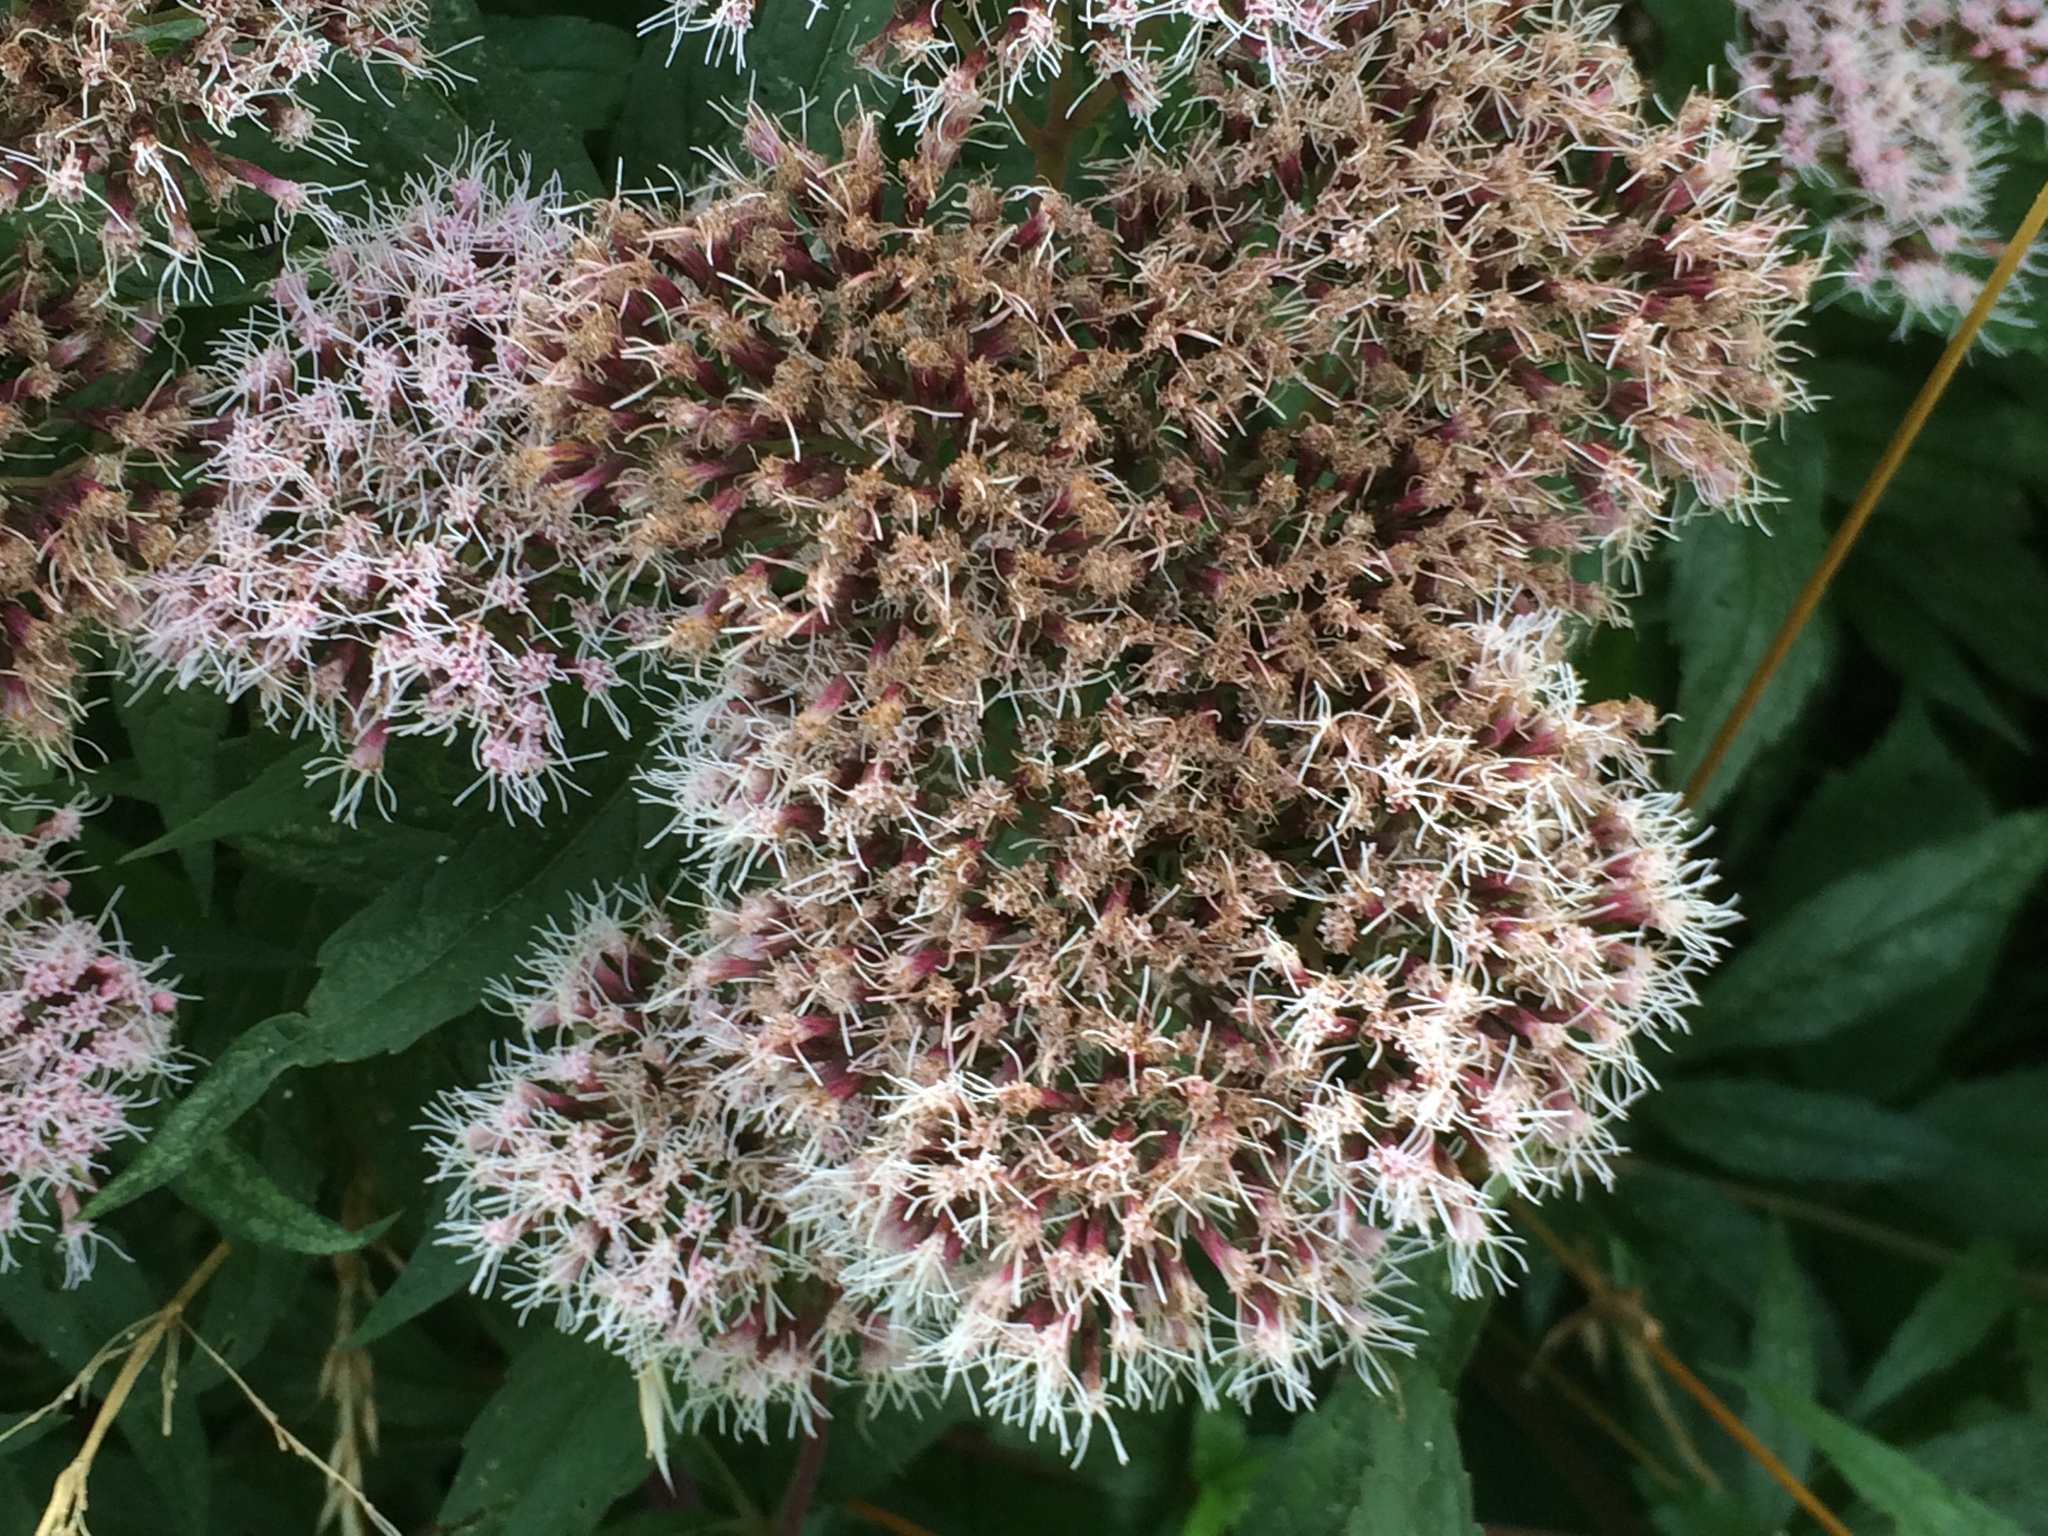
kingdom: Plantae
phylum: Tracheophyta
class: Magnoliopsida
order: Asterales
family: Asteraceae
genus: Eupatorium
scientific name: Eupatorium cannabinum
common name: Hemp-agrimony
